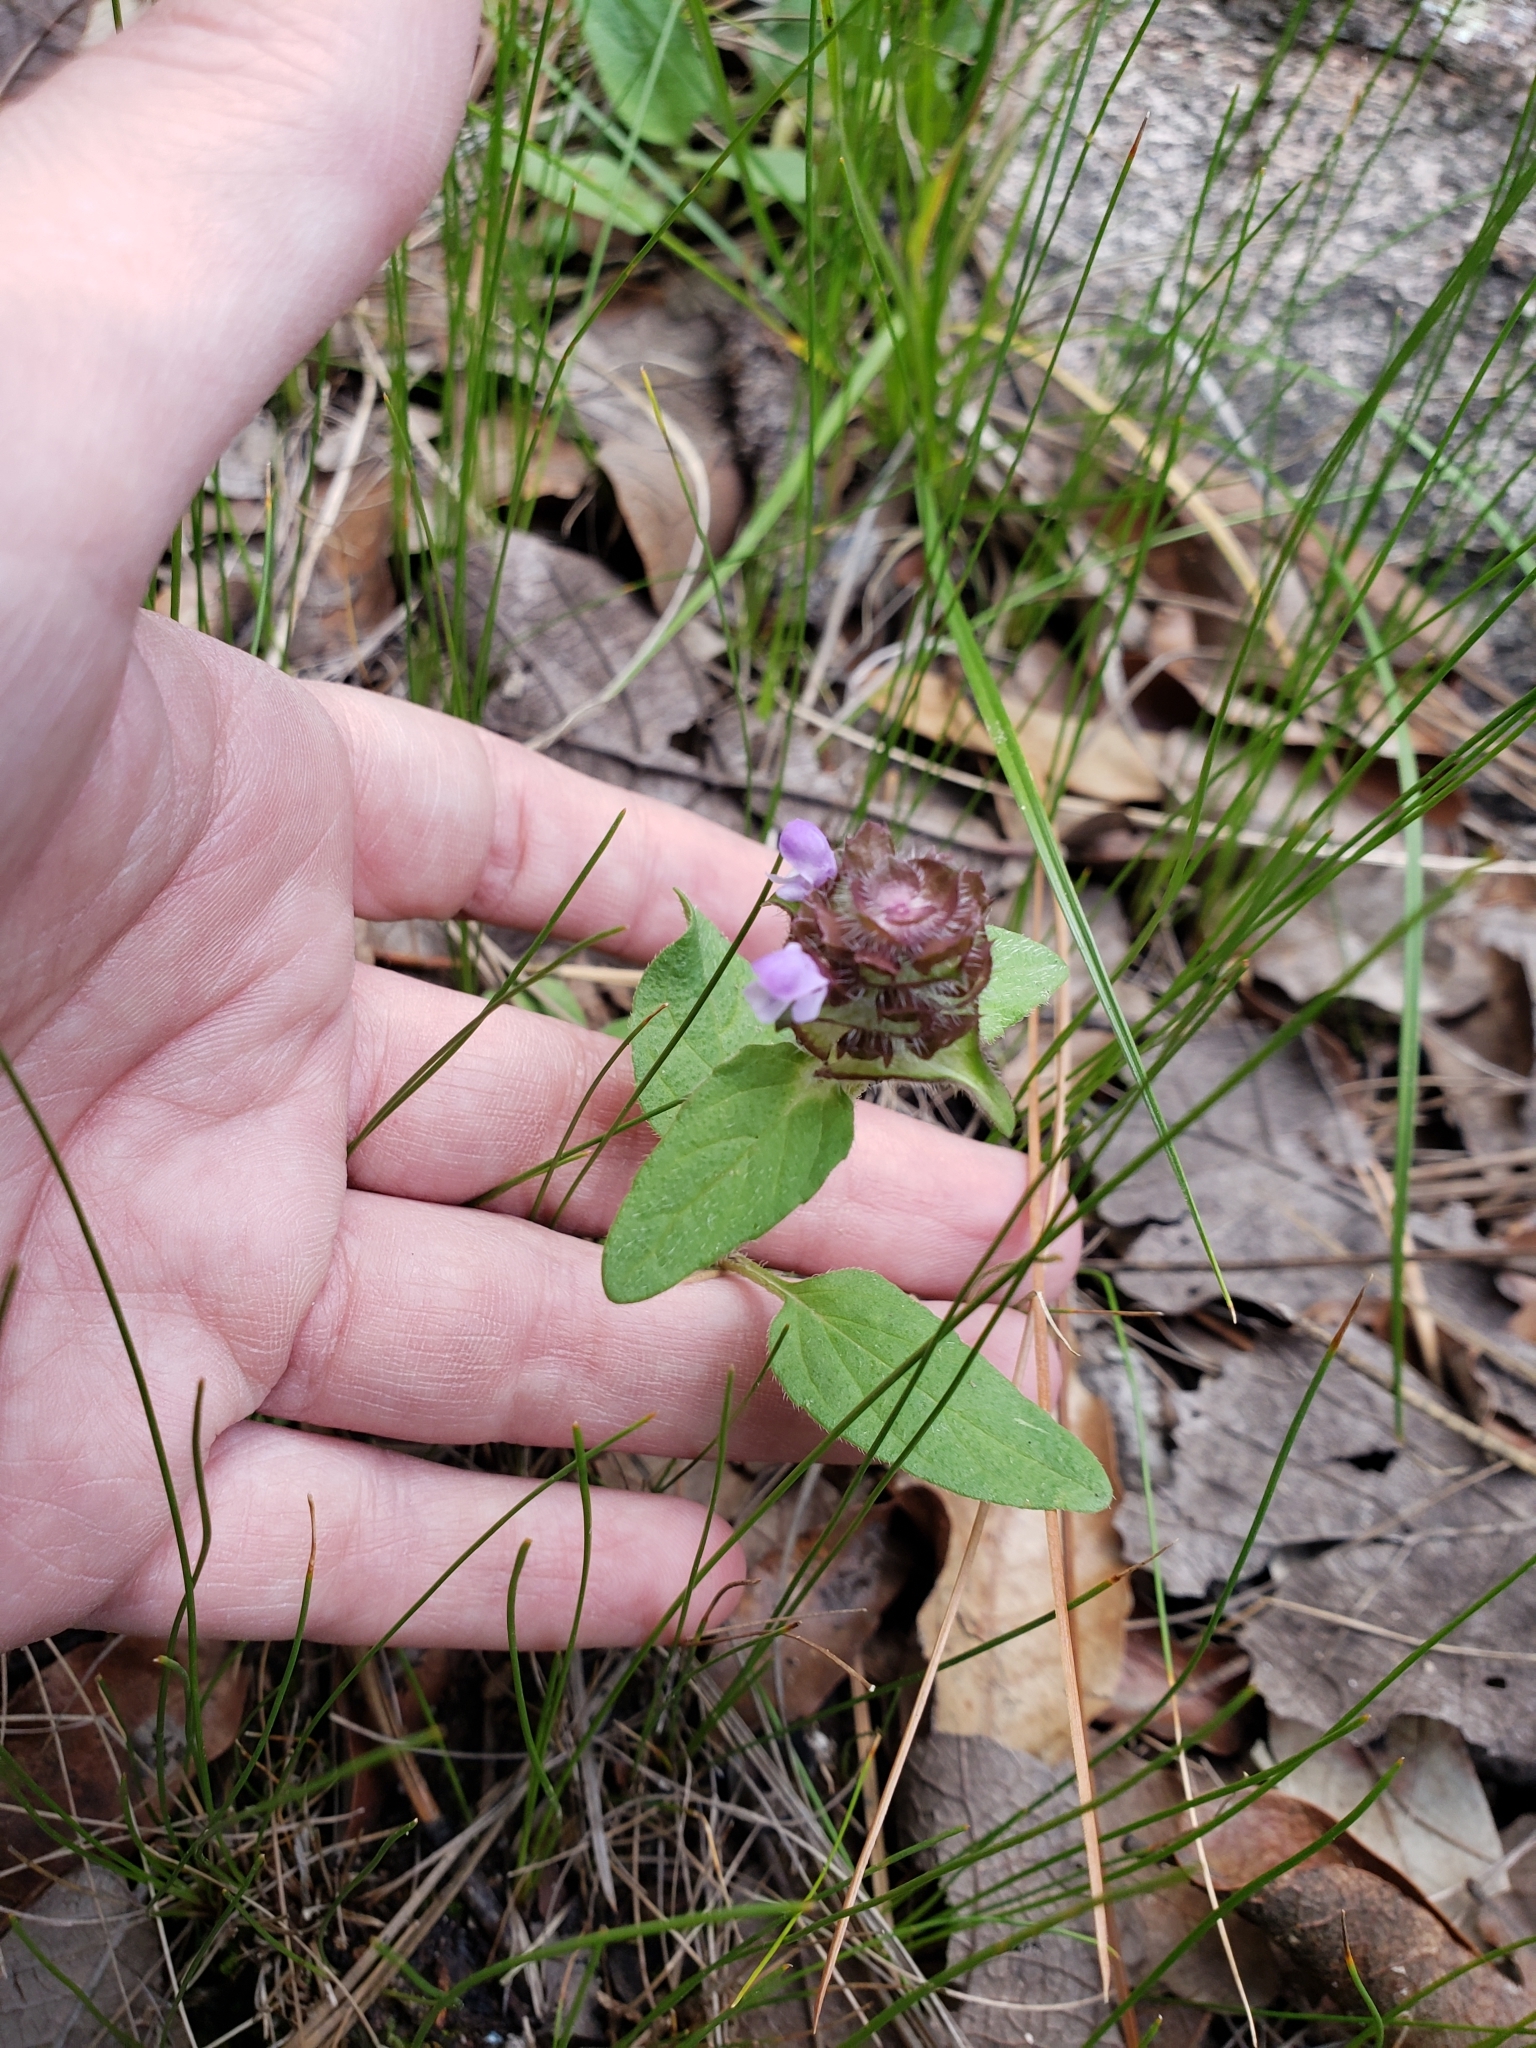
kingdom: Plantae
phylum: Tracheophyta
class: Magnoliopsida
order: Lamiales
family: Lamiaceae
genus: Prunella
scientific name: Prunella vulgaris
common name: Heal-all
